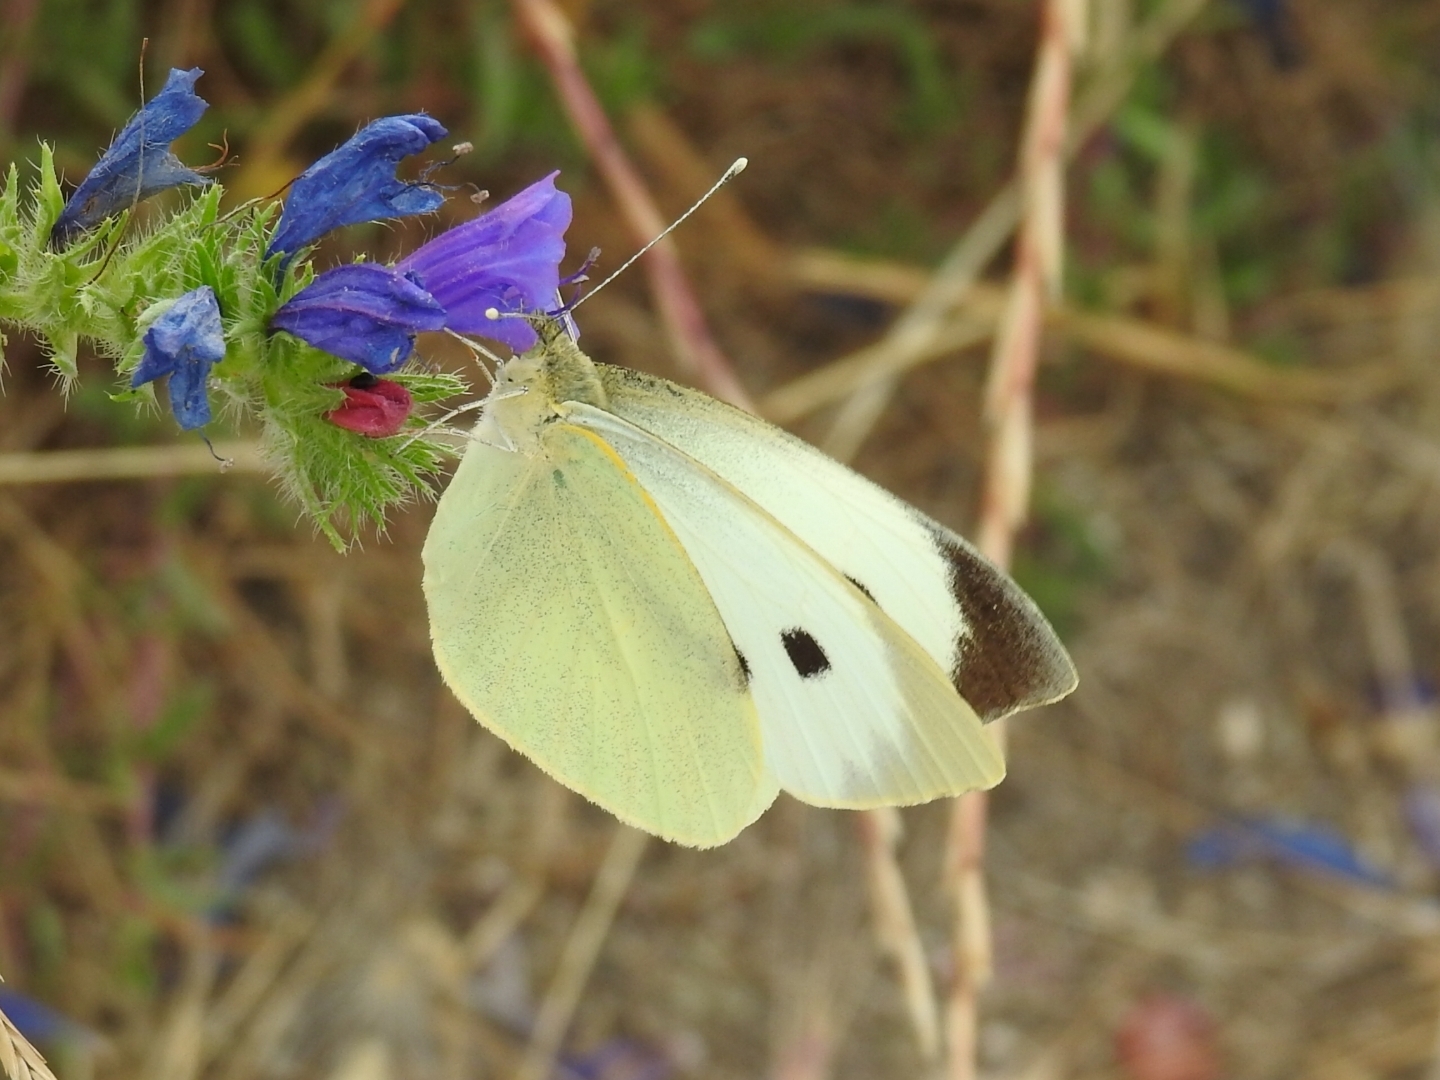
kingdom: Animalia
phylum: Arthropoda
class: Insecta
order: Lepidoptera
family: Pieridae
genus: Pieris
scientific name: Pieris brassicae
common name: Large white
